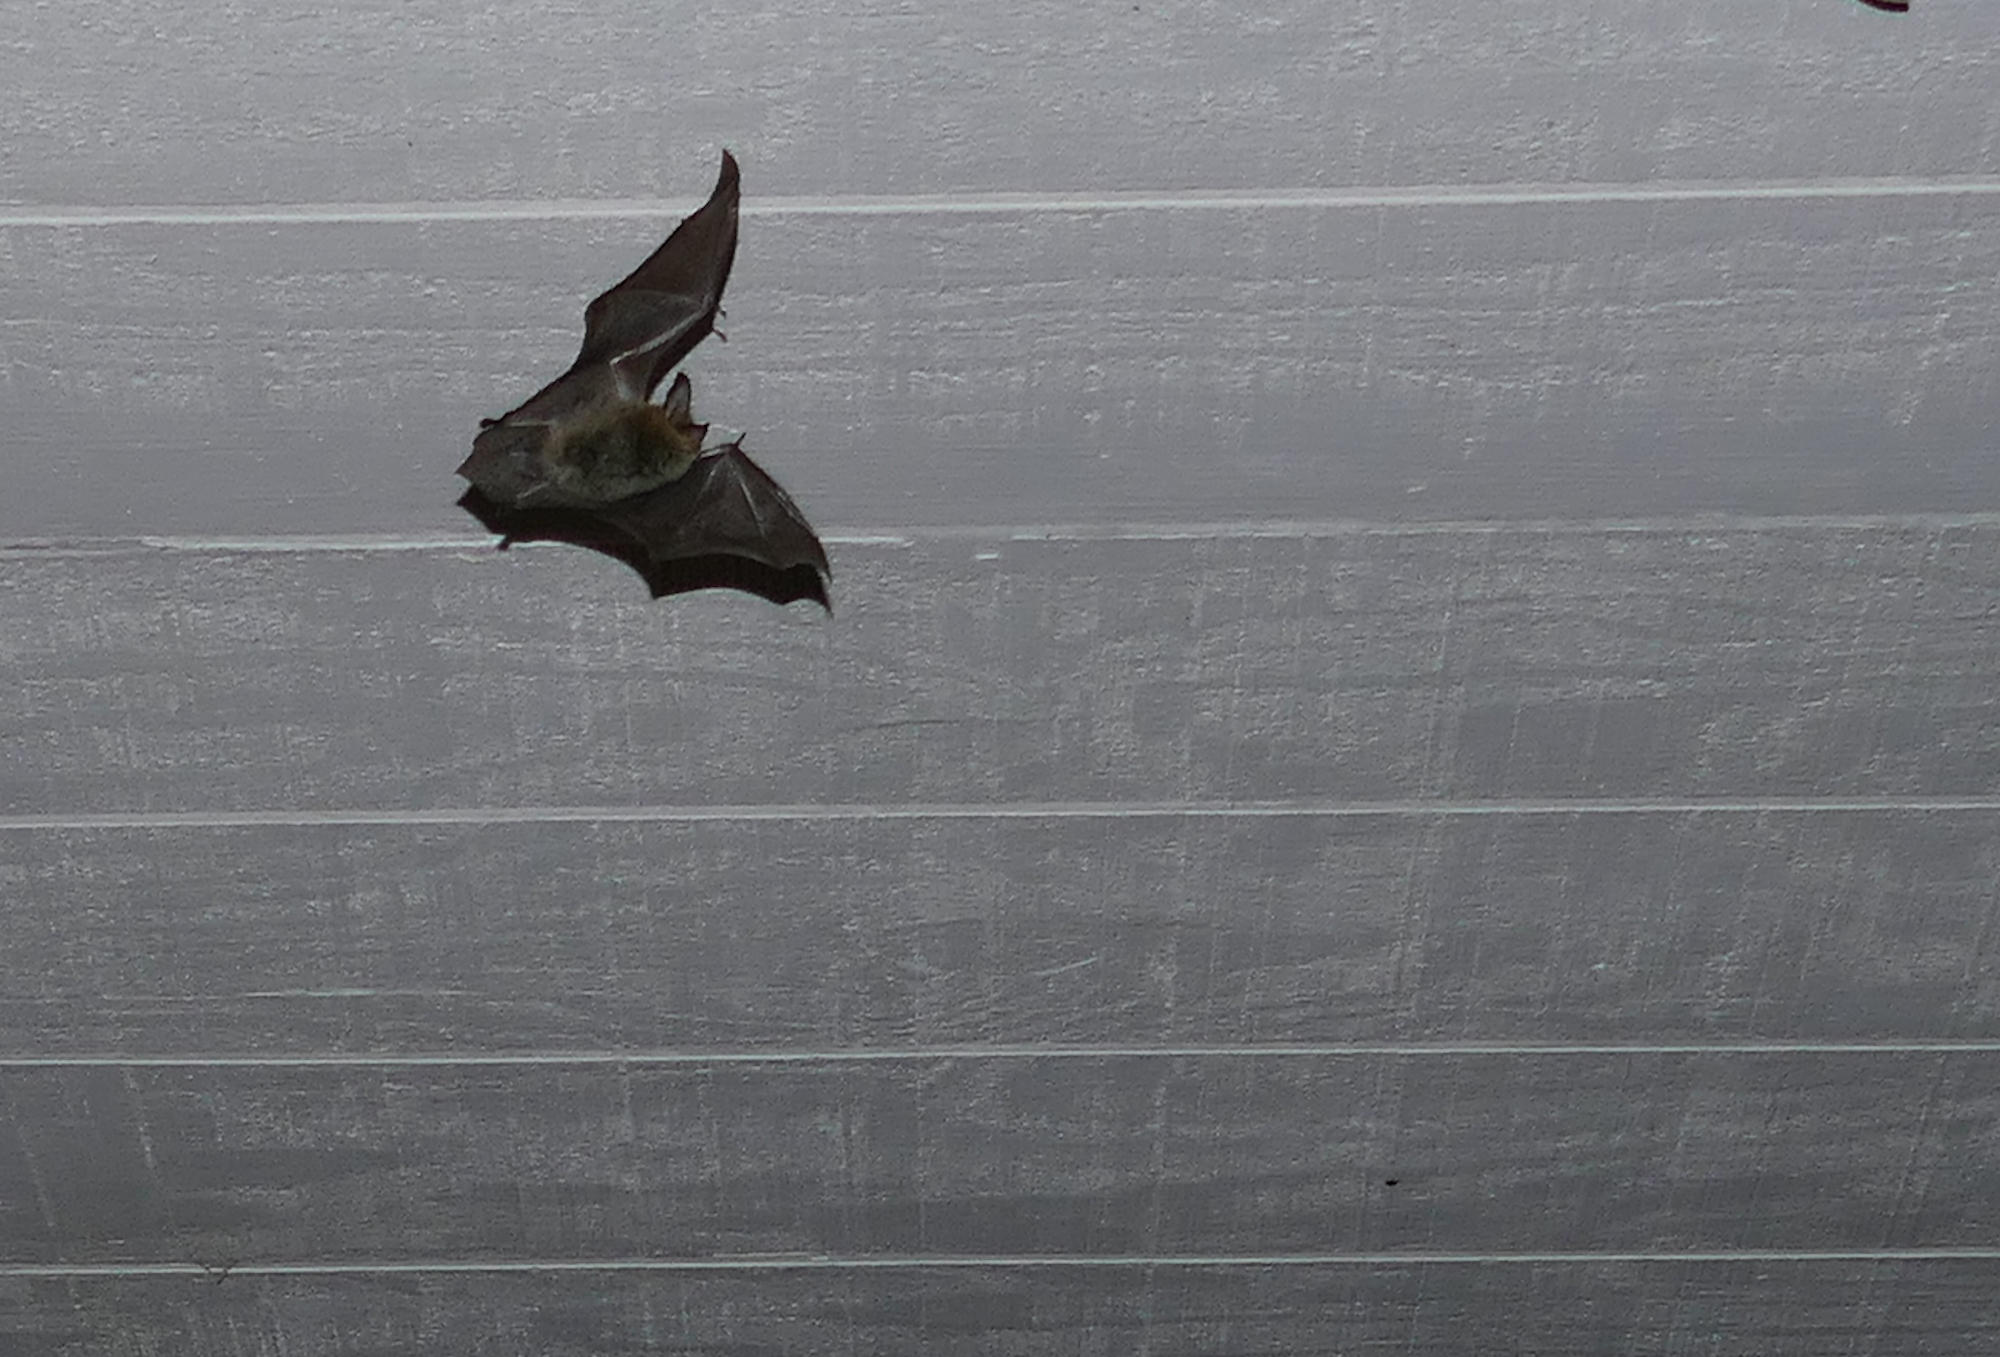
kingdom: Animalia
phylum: Chordata
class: Mammalia
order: Chiroptera
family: Vespertilionidae
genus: Myotis
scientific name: Myotis auriculus
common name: Southwestern myotis
